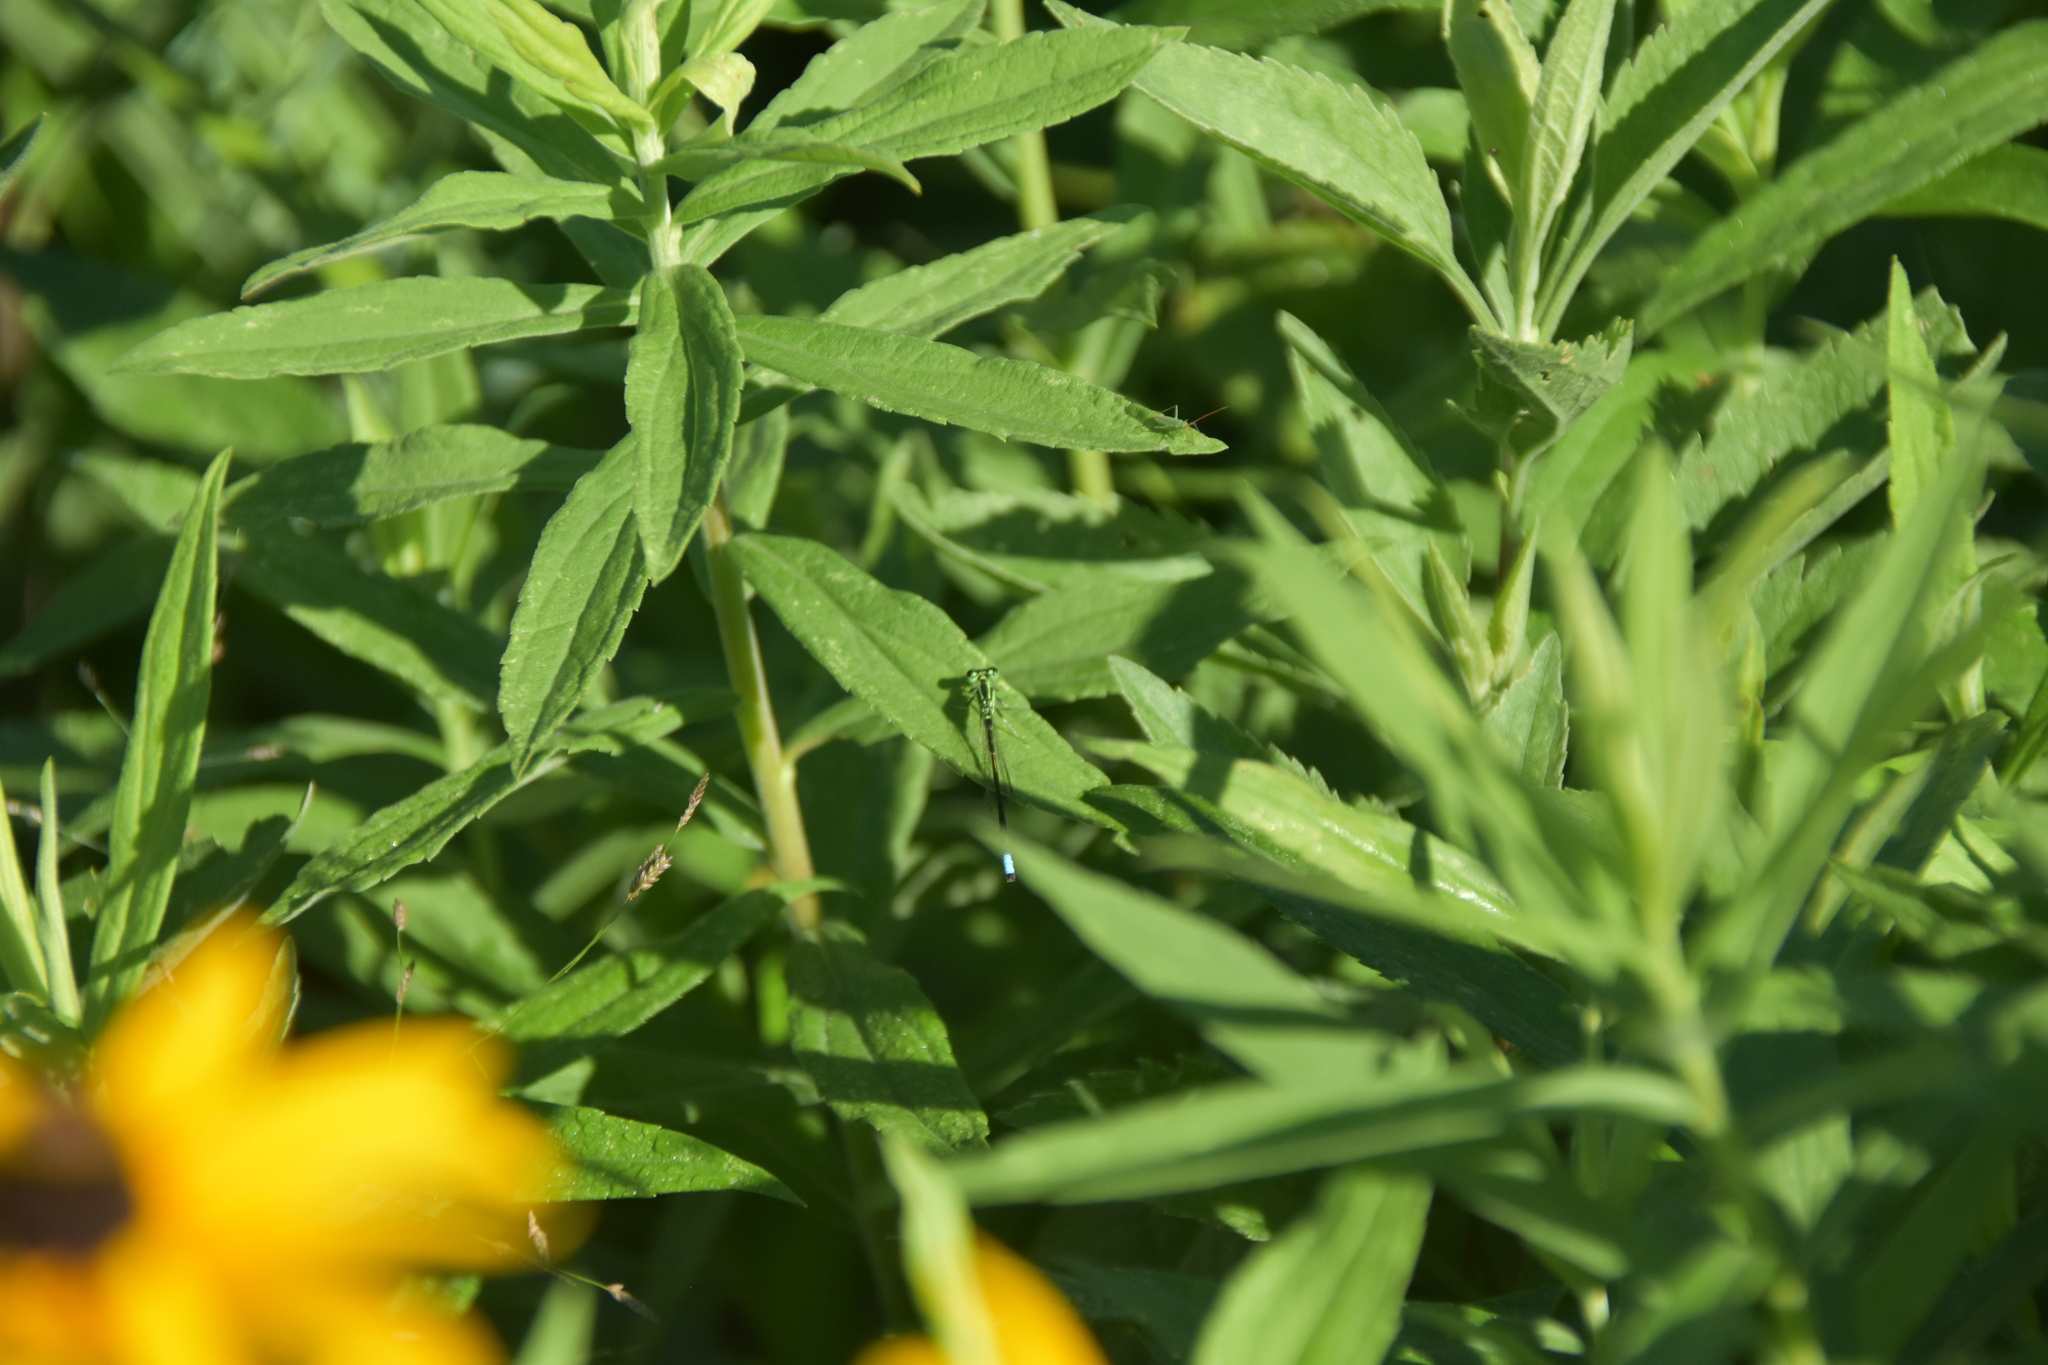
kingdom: Animalia
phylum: Arthropoda
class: Insecta
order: Odonata
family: Coenagrionidae
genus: Ischnura
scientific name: Ischnura verticalis
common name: Eastern forktail
